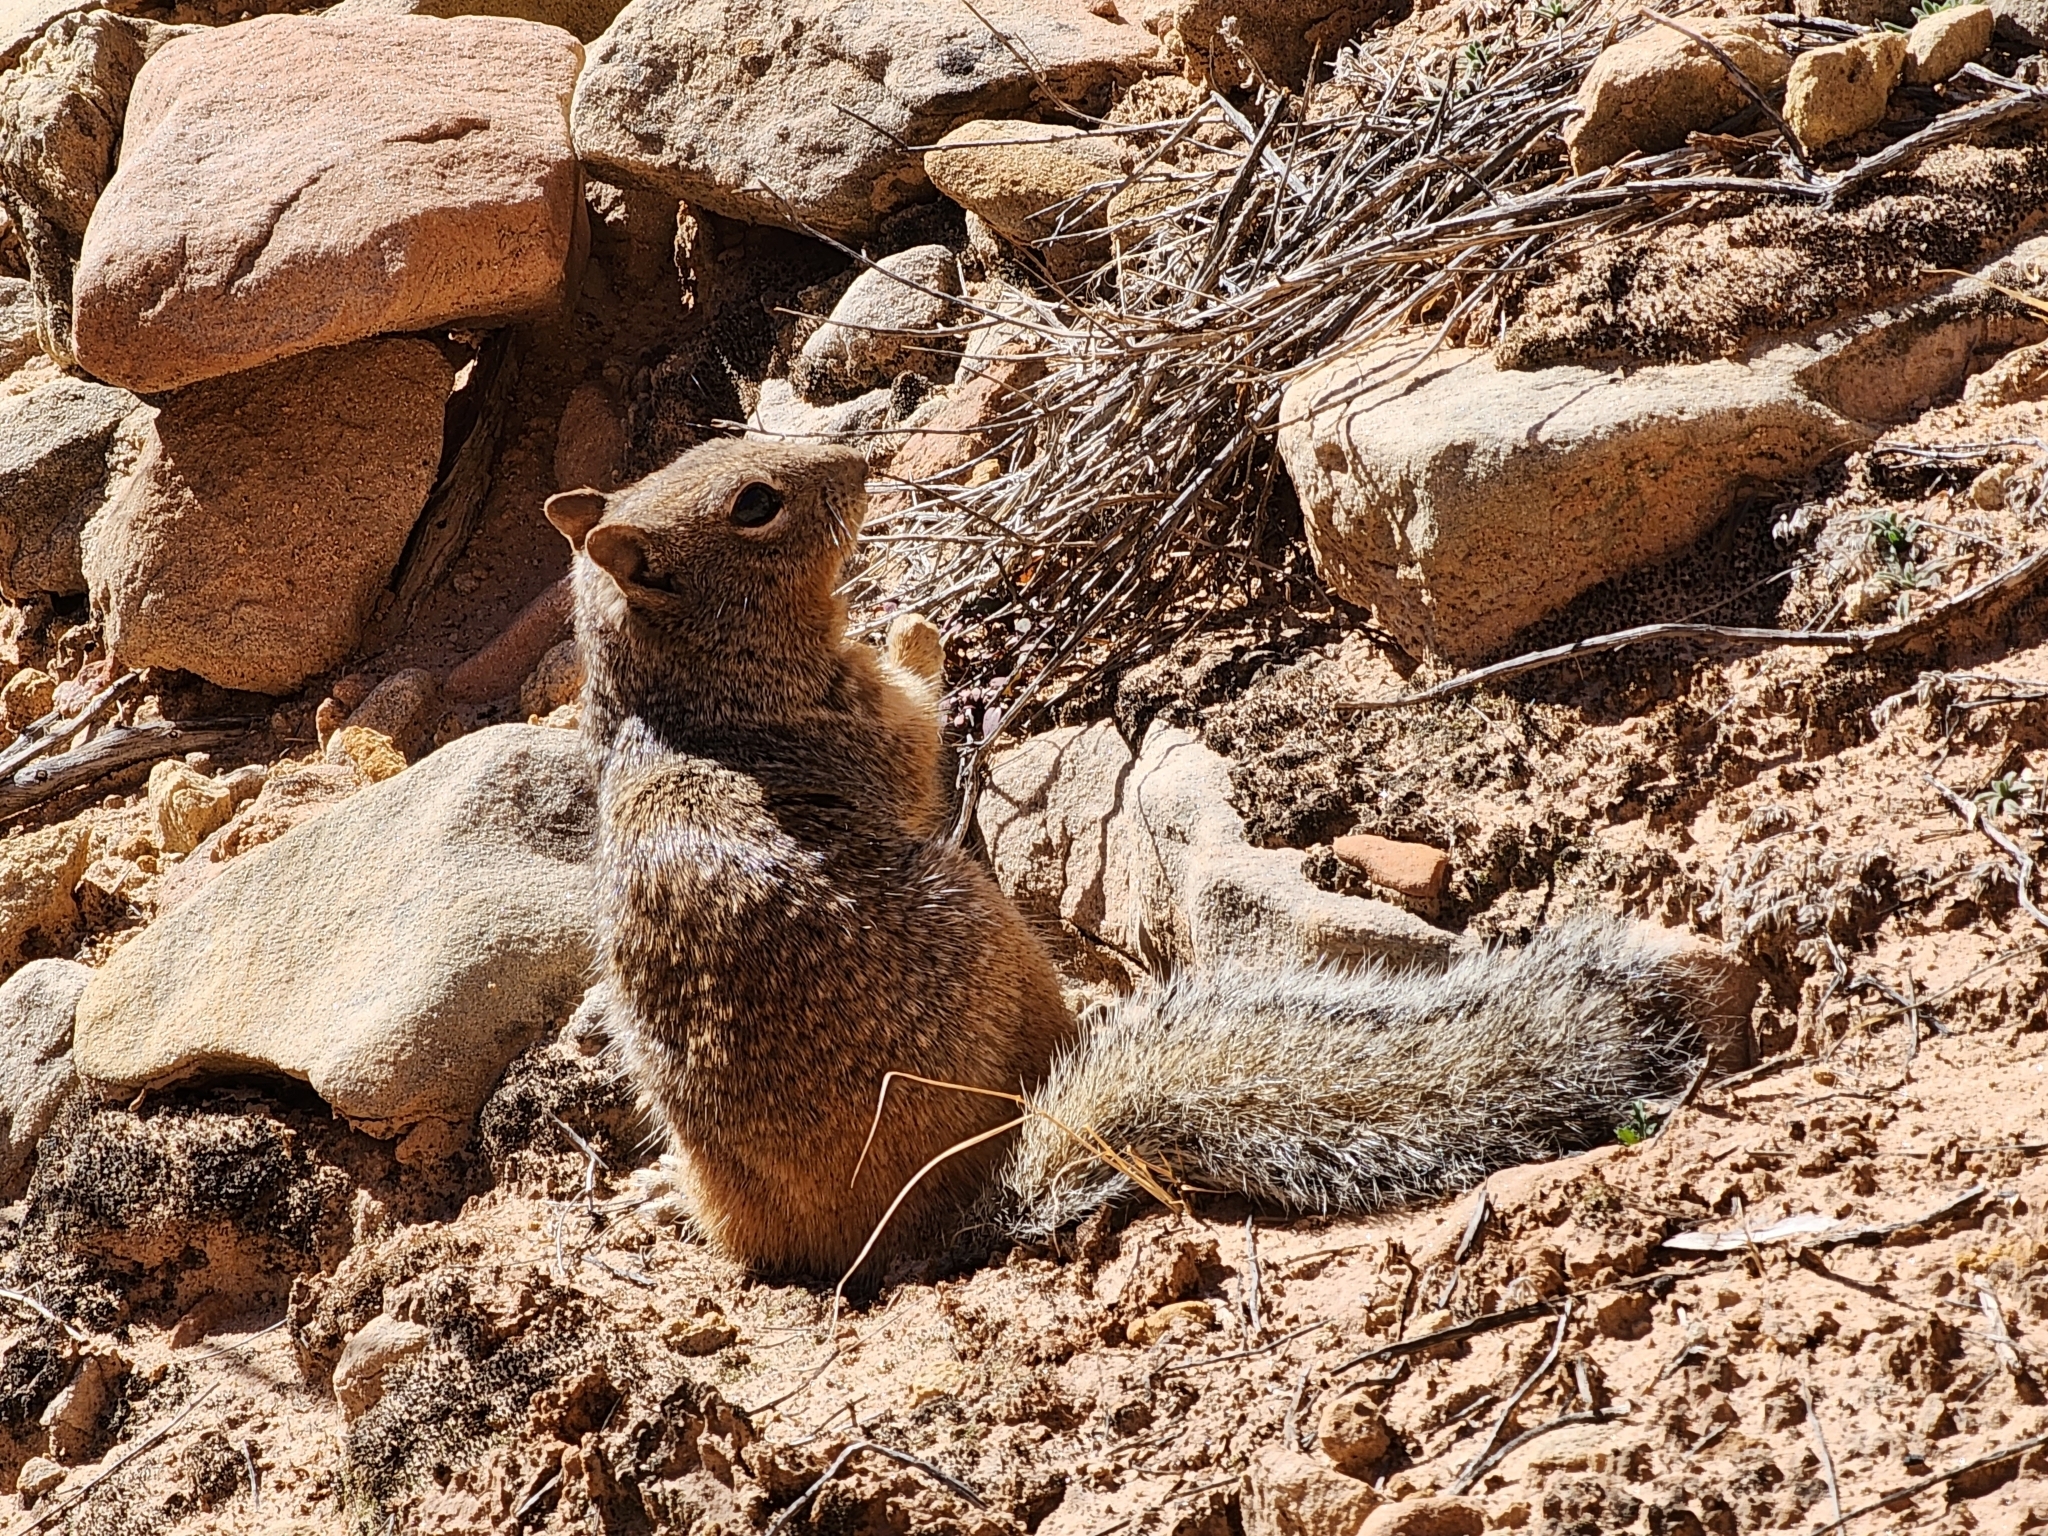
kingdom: Animalia
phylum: Chordata
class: Mammalia
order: Rodentia
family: Sciuridae
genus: Otospermophilus
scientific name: Otospermophilus variegatus
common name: Rock squirrel
